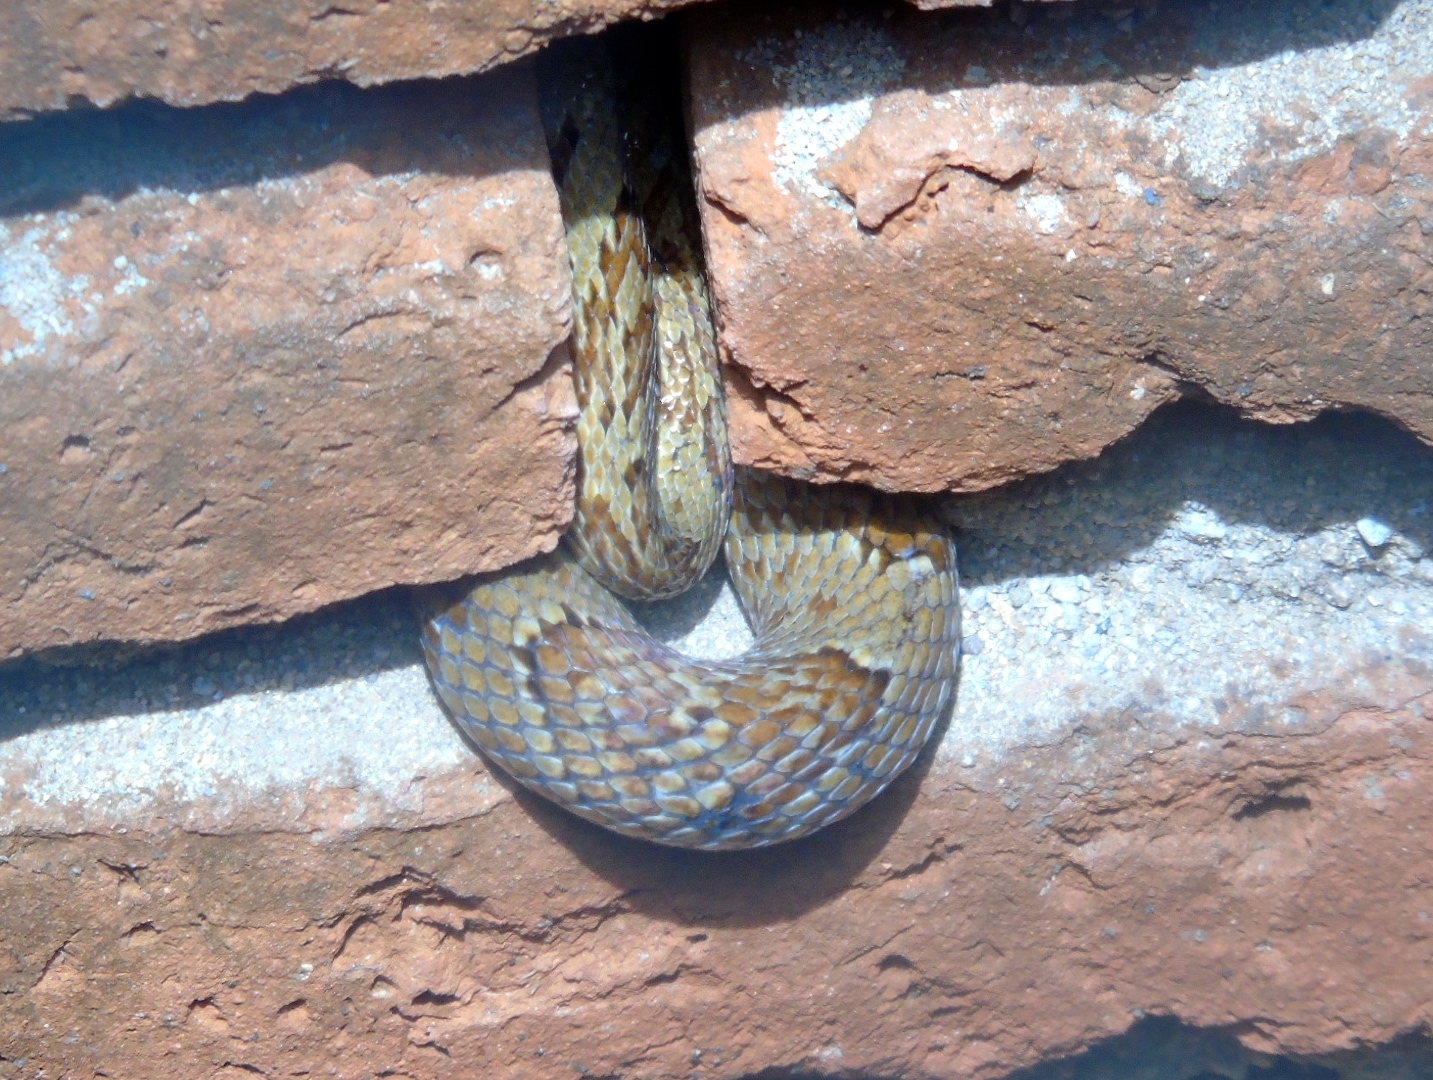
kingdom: Animalia
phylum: Chordata
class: Squamata
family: Colubridae
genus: Trimorphodon
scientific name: Trimorphodon paucimaculatus
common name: Sinaloan lyresnake
